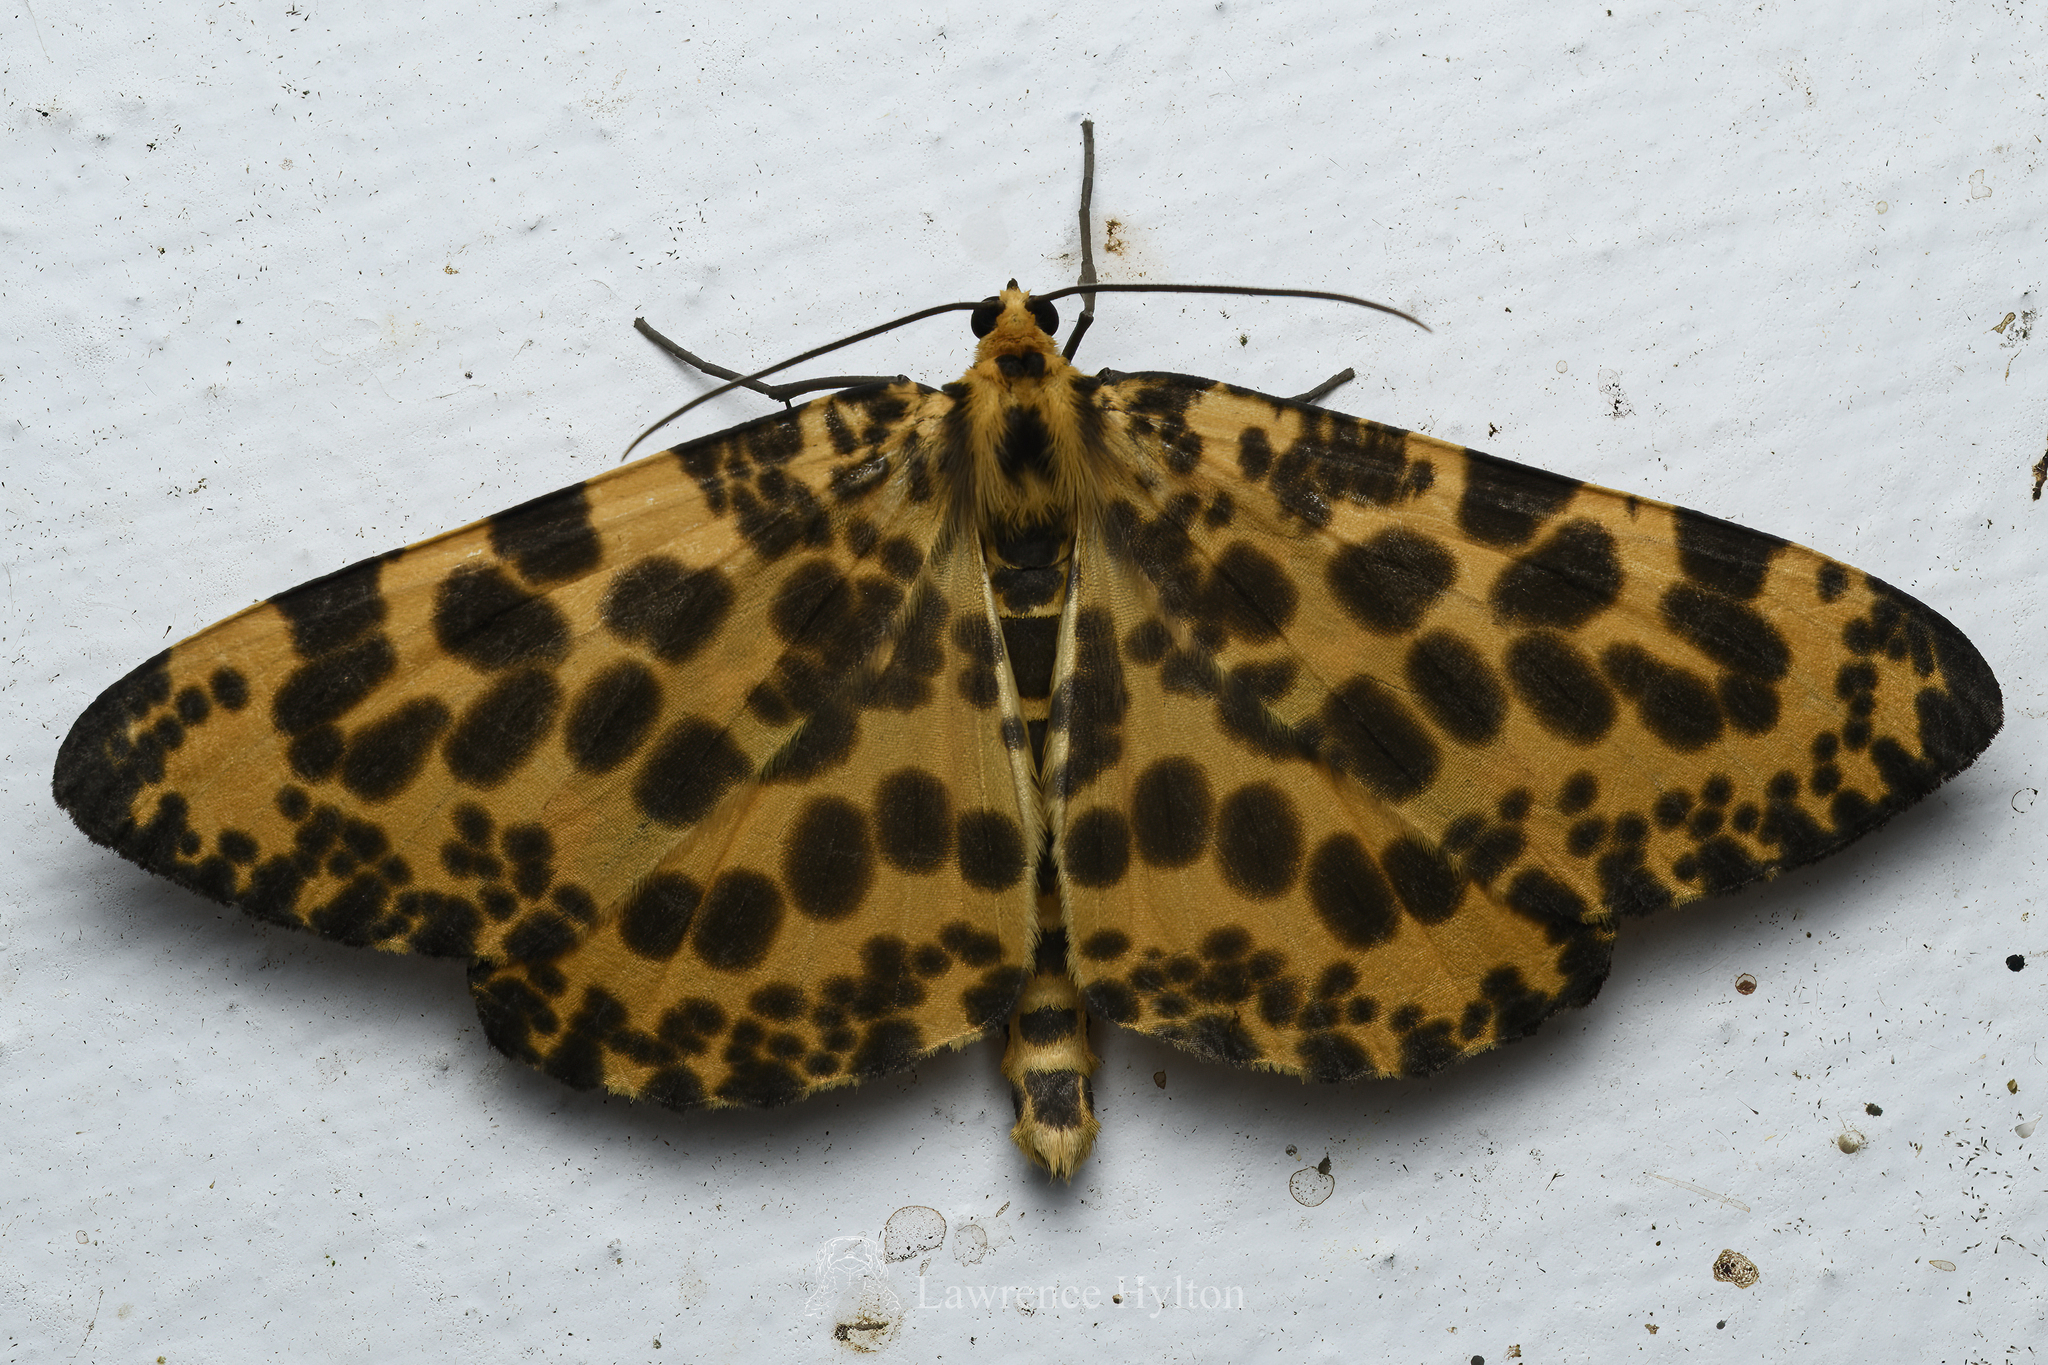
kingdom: Animalia
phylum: Arthropoda
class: Insecta
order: Lepidoptera
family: Geometridae
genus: Obeidia
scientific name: Obeidia Epobeidia tigrata
